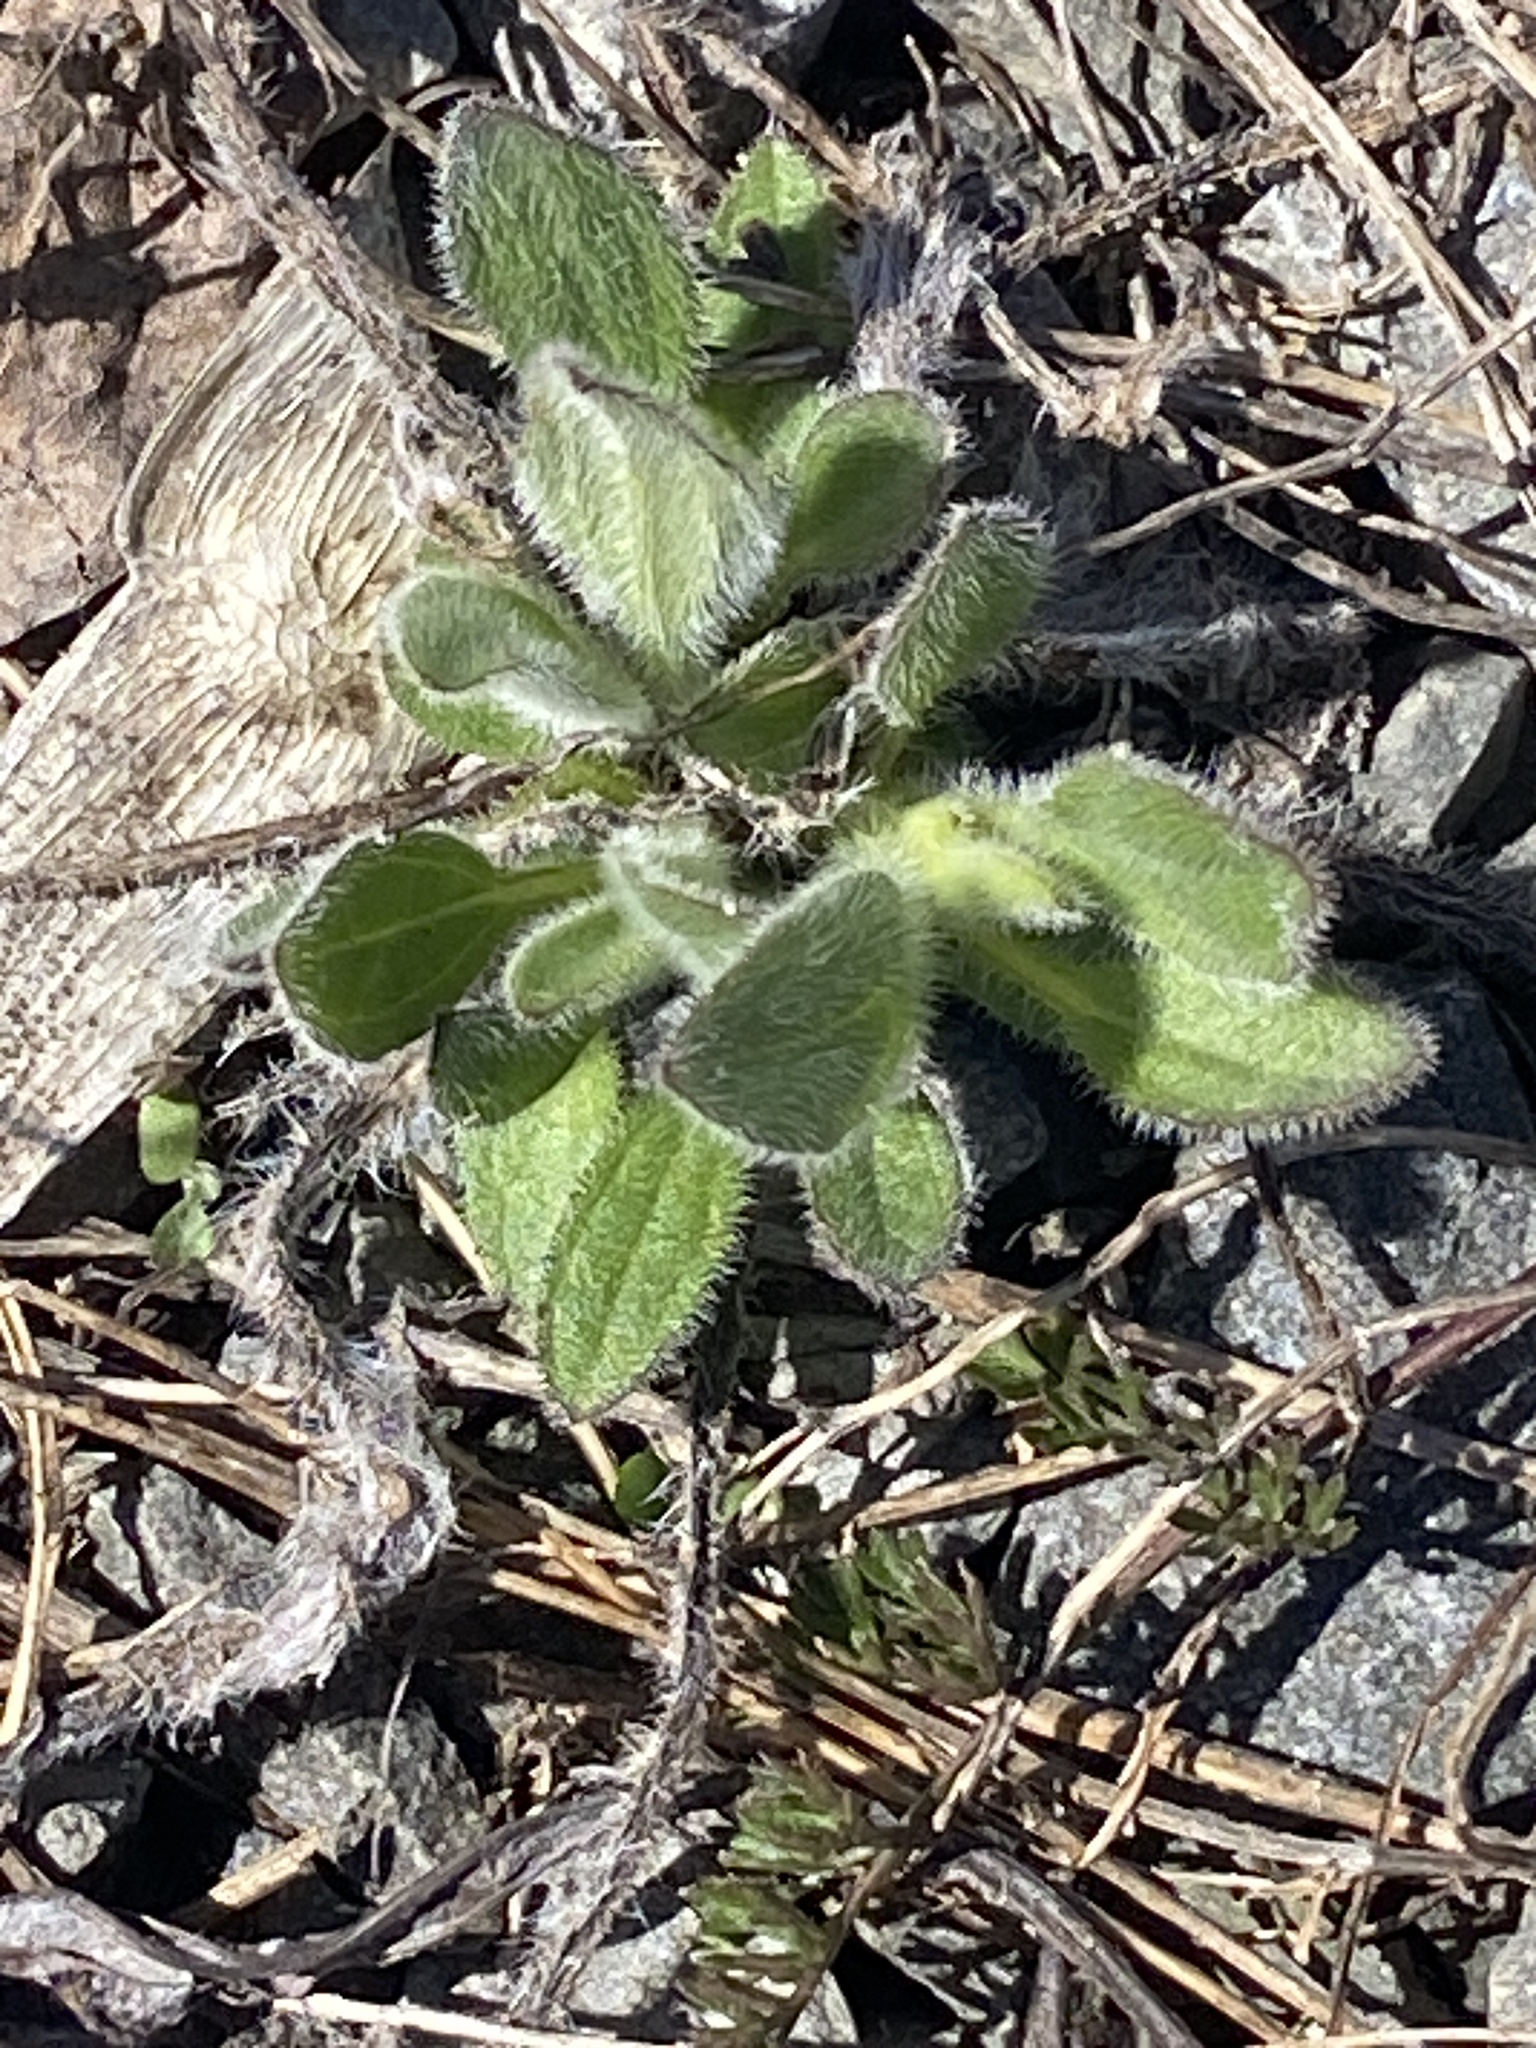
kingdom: Plantae
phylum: Tracheophyta
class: Magnoliopsida
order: Asterales
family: Asteraceae
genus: Rudbeckia
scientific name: Rudbeckia hirta
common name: Black-eyed-susan
